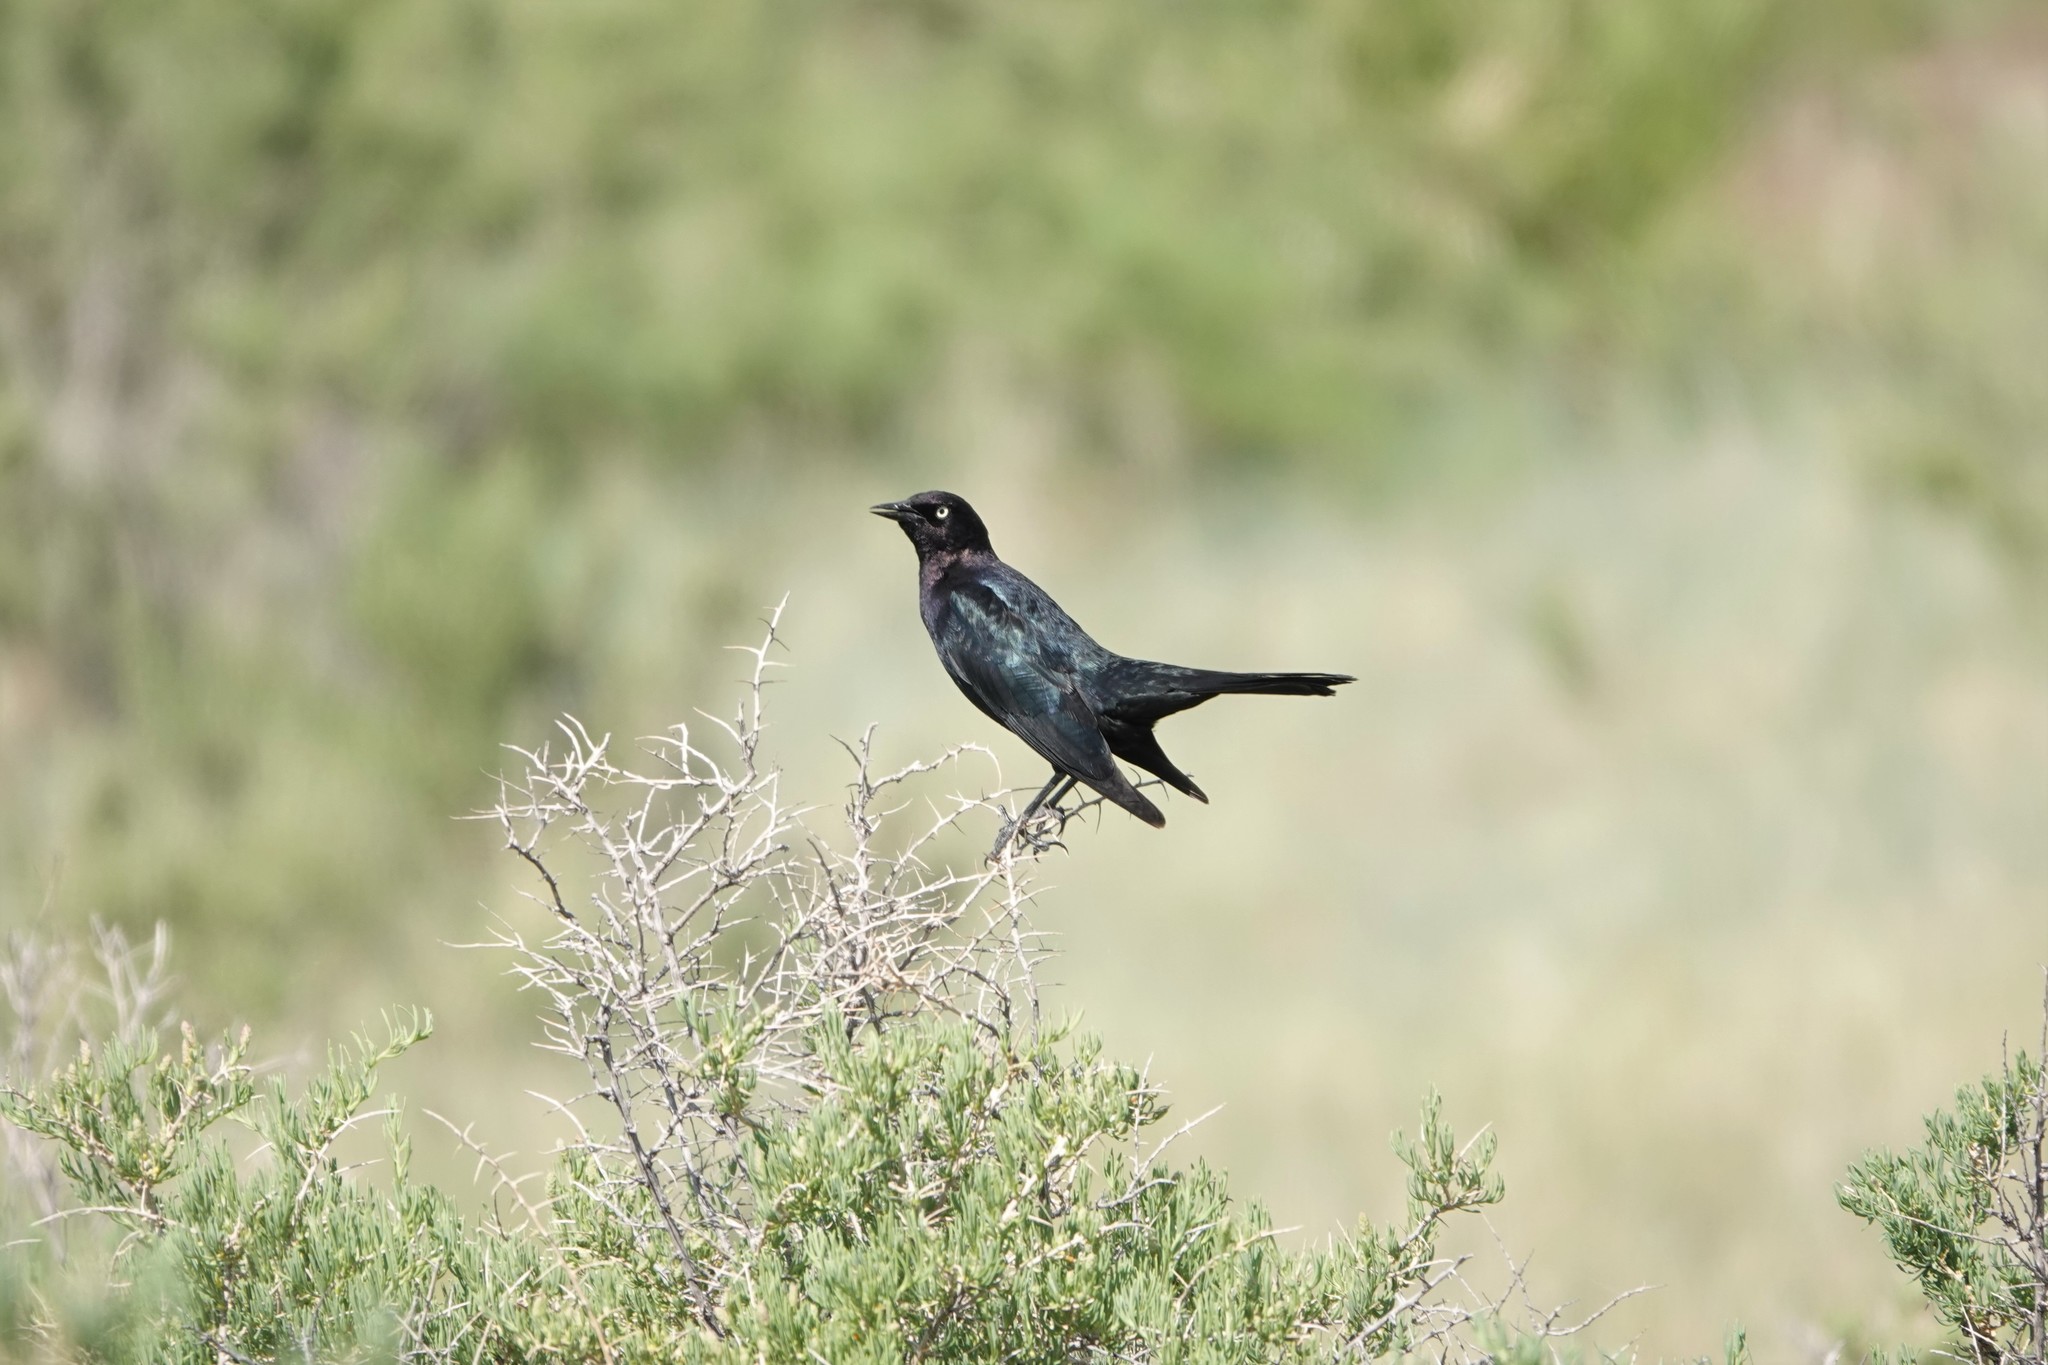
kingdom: Animalia
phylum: Chordata
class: Aves
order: Passeriformes
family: Icteridae
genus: Euphagus
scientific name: Euphagus cyanocephalus
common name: Brewer's blackbird
